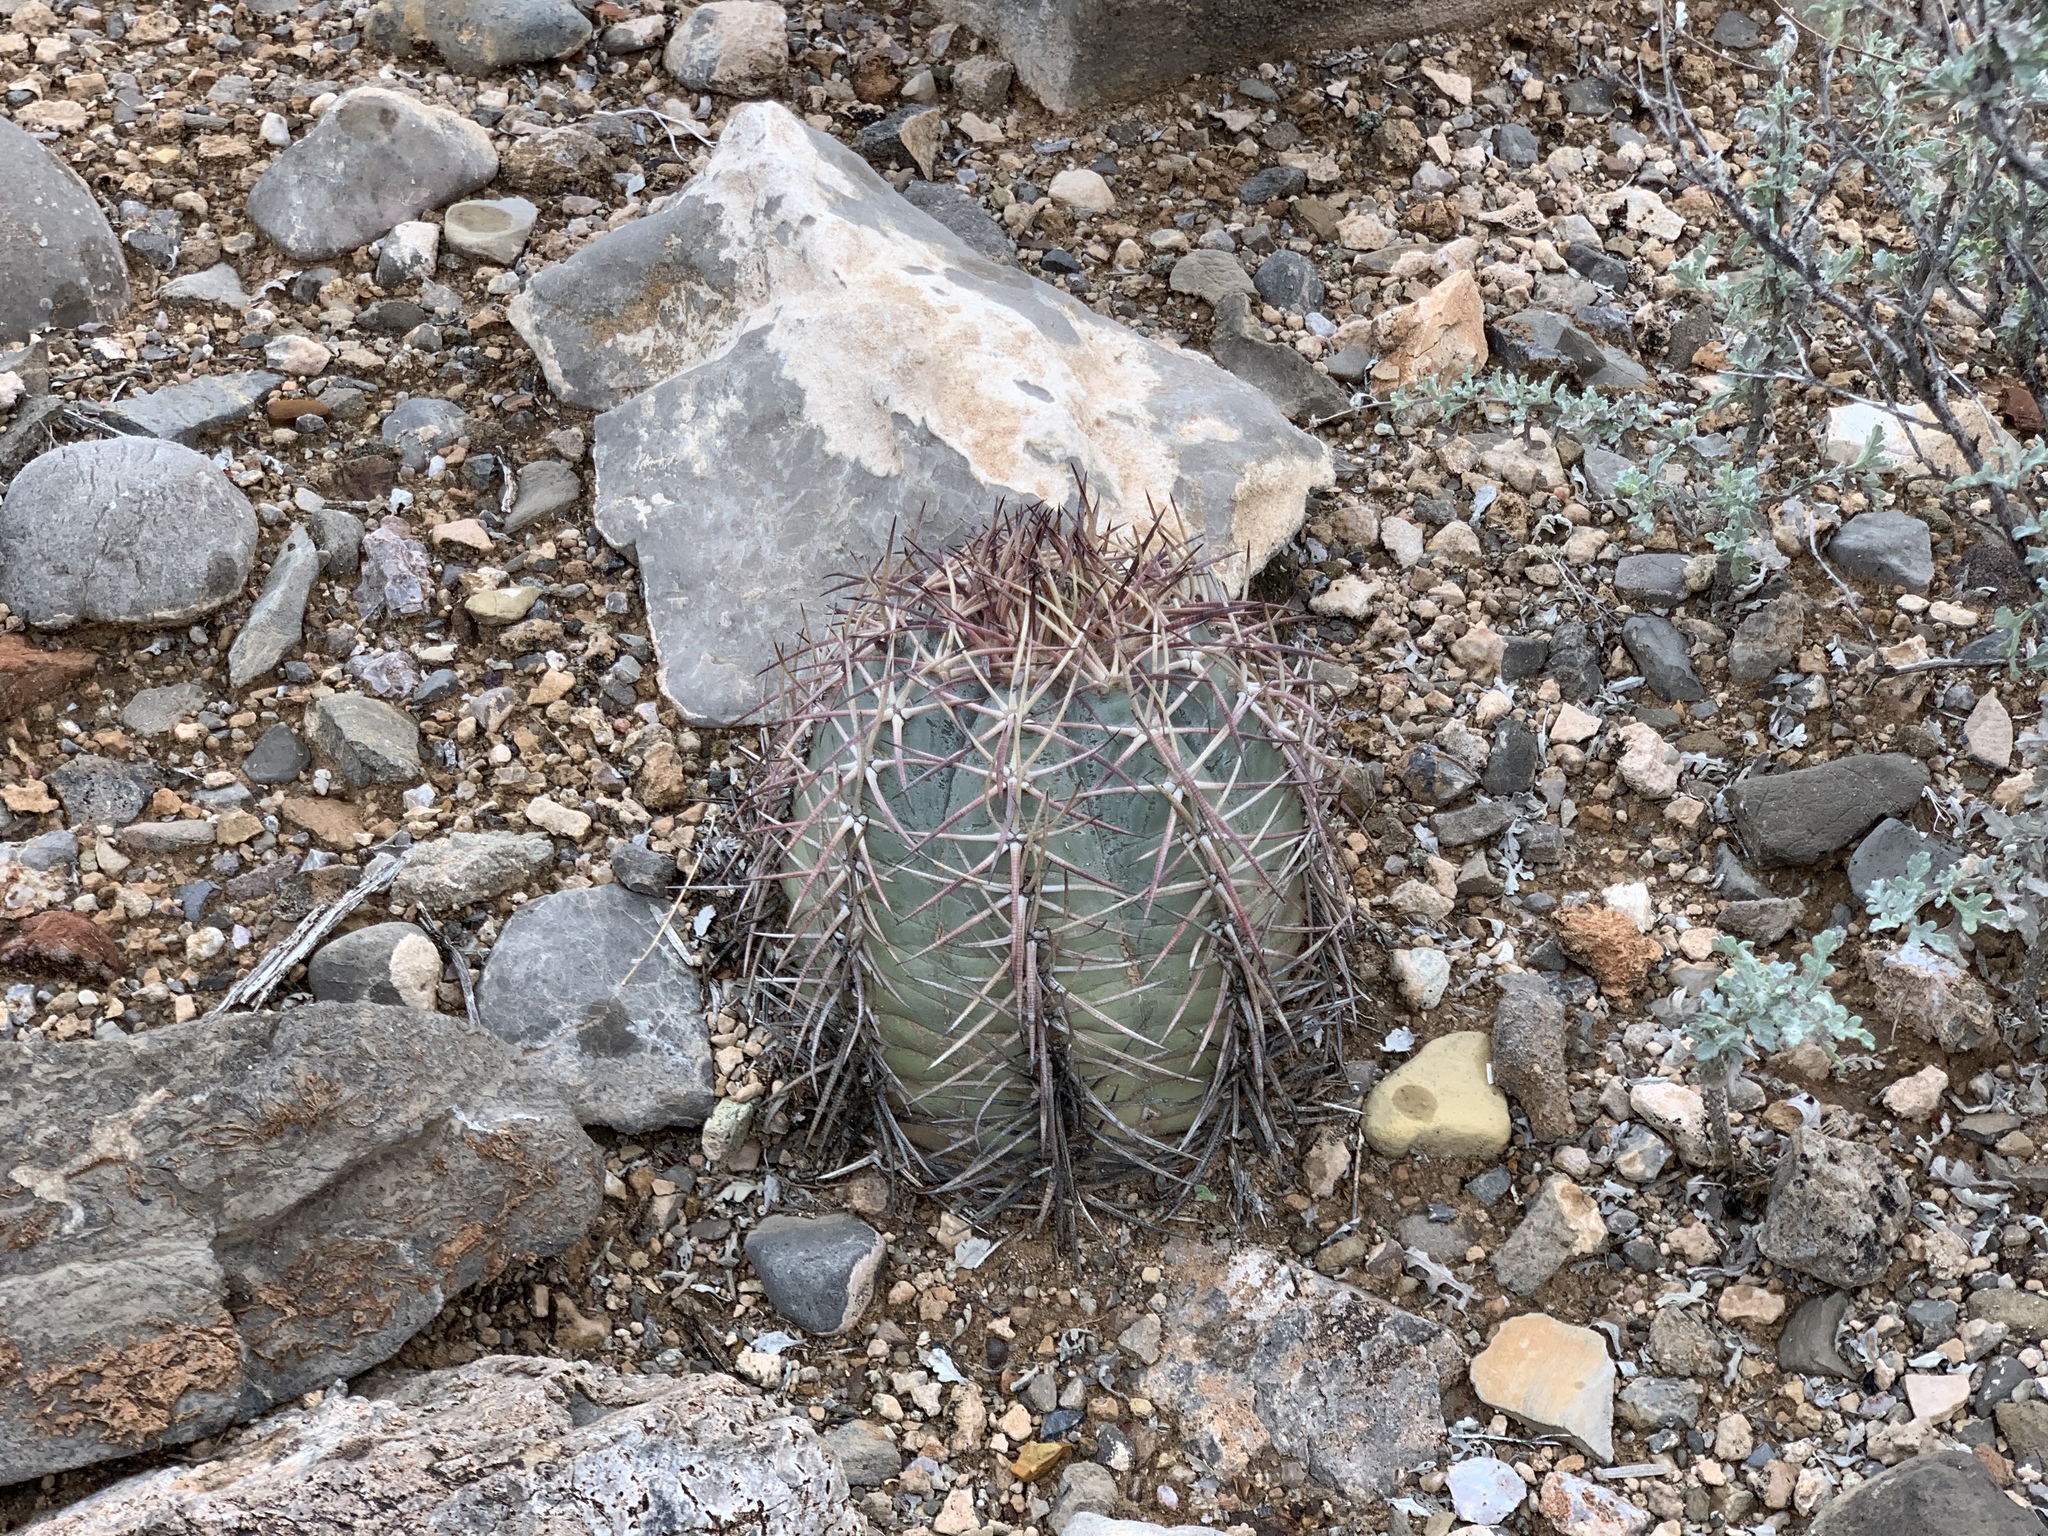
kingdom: Plantae
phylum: Tracheophyta
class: Magnoliopsida
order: Caryophyllales
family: Cactaceae
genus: Echinocactus
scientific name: Echinocactus horizonthalonius
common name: Devilshead
